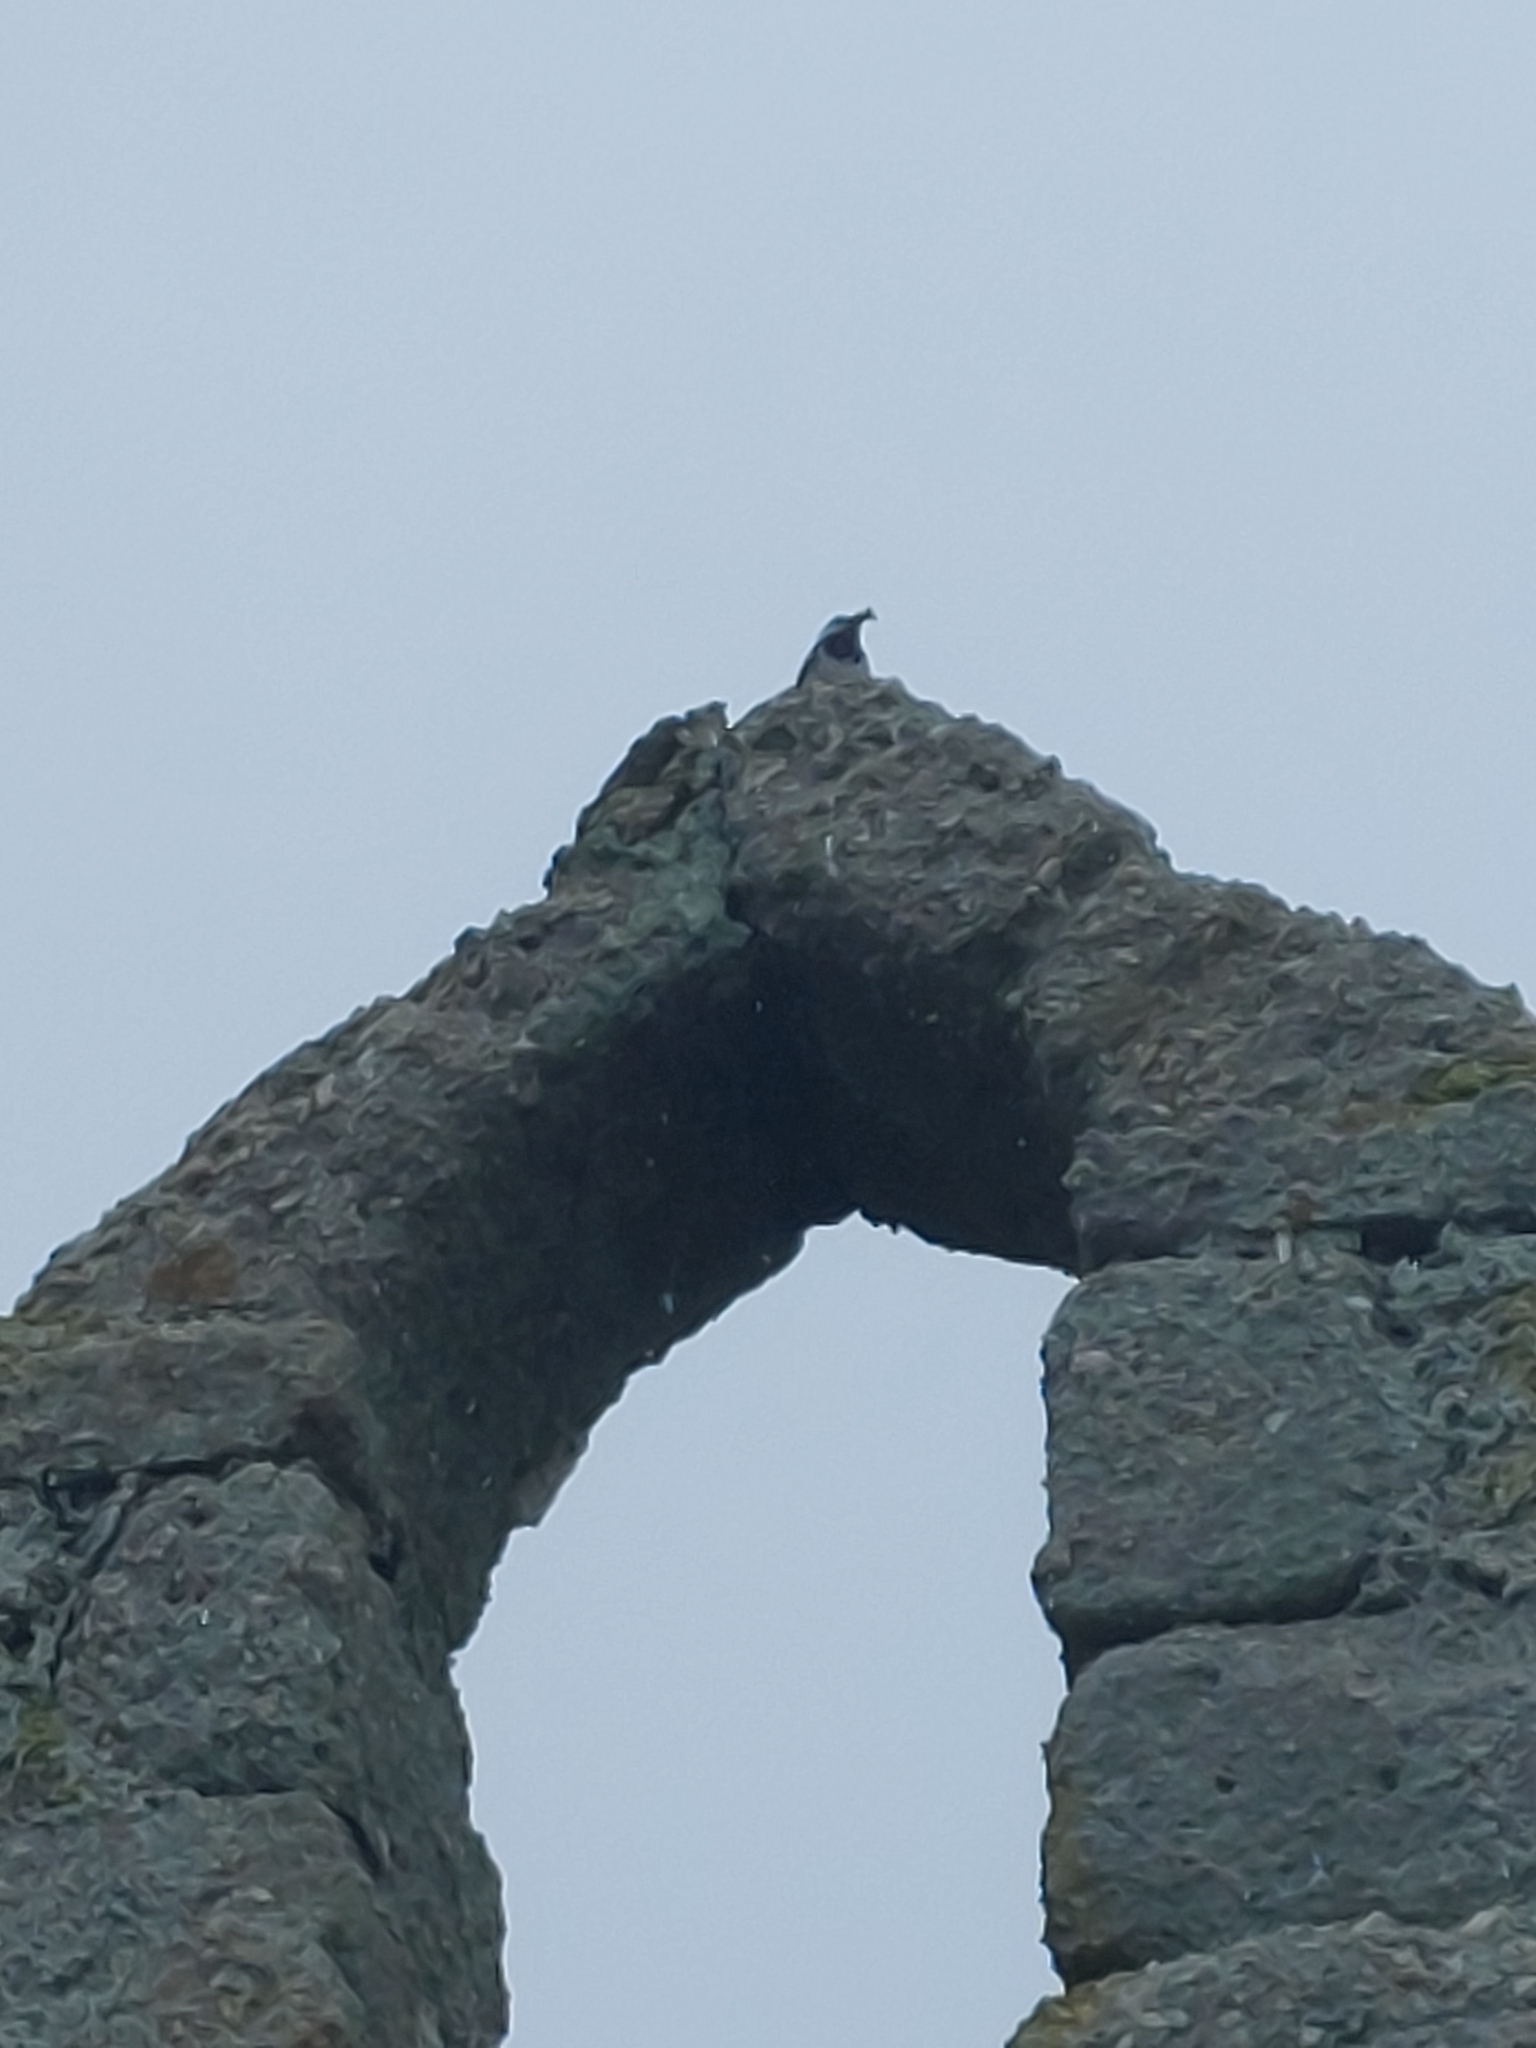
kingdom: Animalia
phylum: Chordata
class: Aves
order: Passeriformes
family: Motacillidae
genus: Motacilla
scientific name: Motacilla alba
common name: White wagtail
